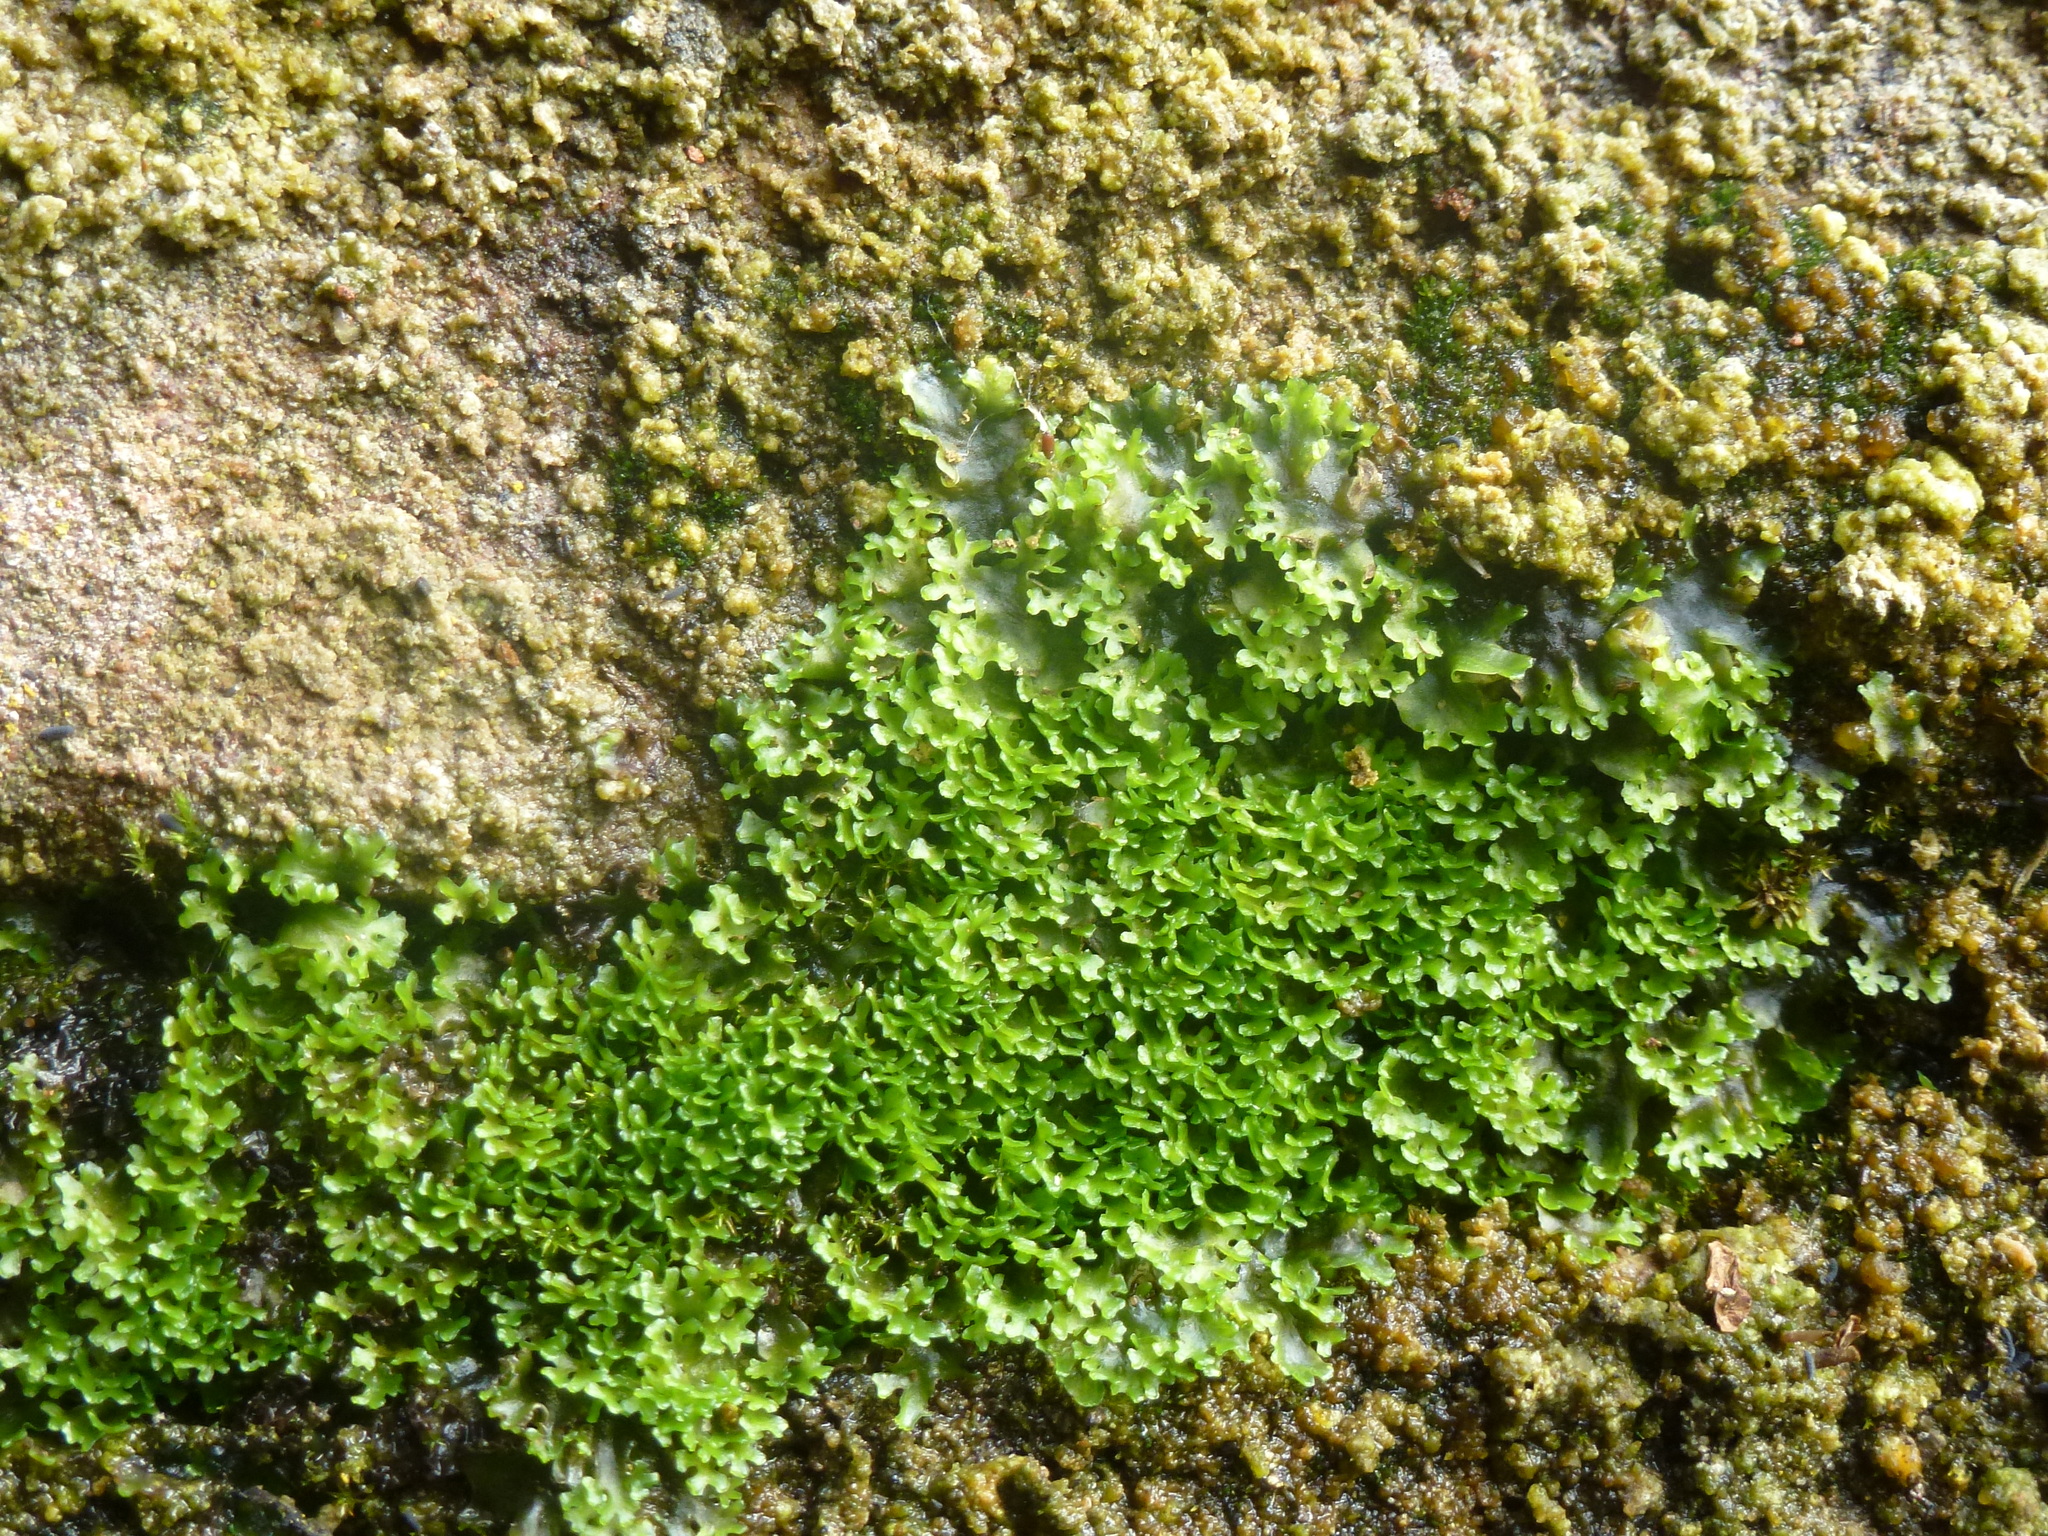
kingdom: Plantae
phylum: Marchantiophyta
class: Jungermanniopsida
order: Pelliales
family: Pelliaceae
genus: Apopellia
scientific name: Apopellia endiviifolia
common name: Endive pellia
